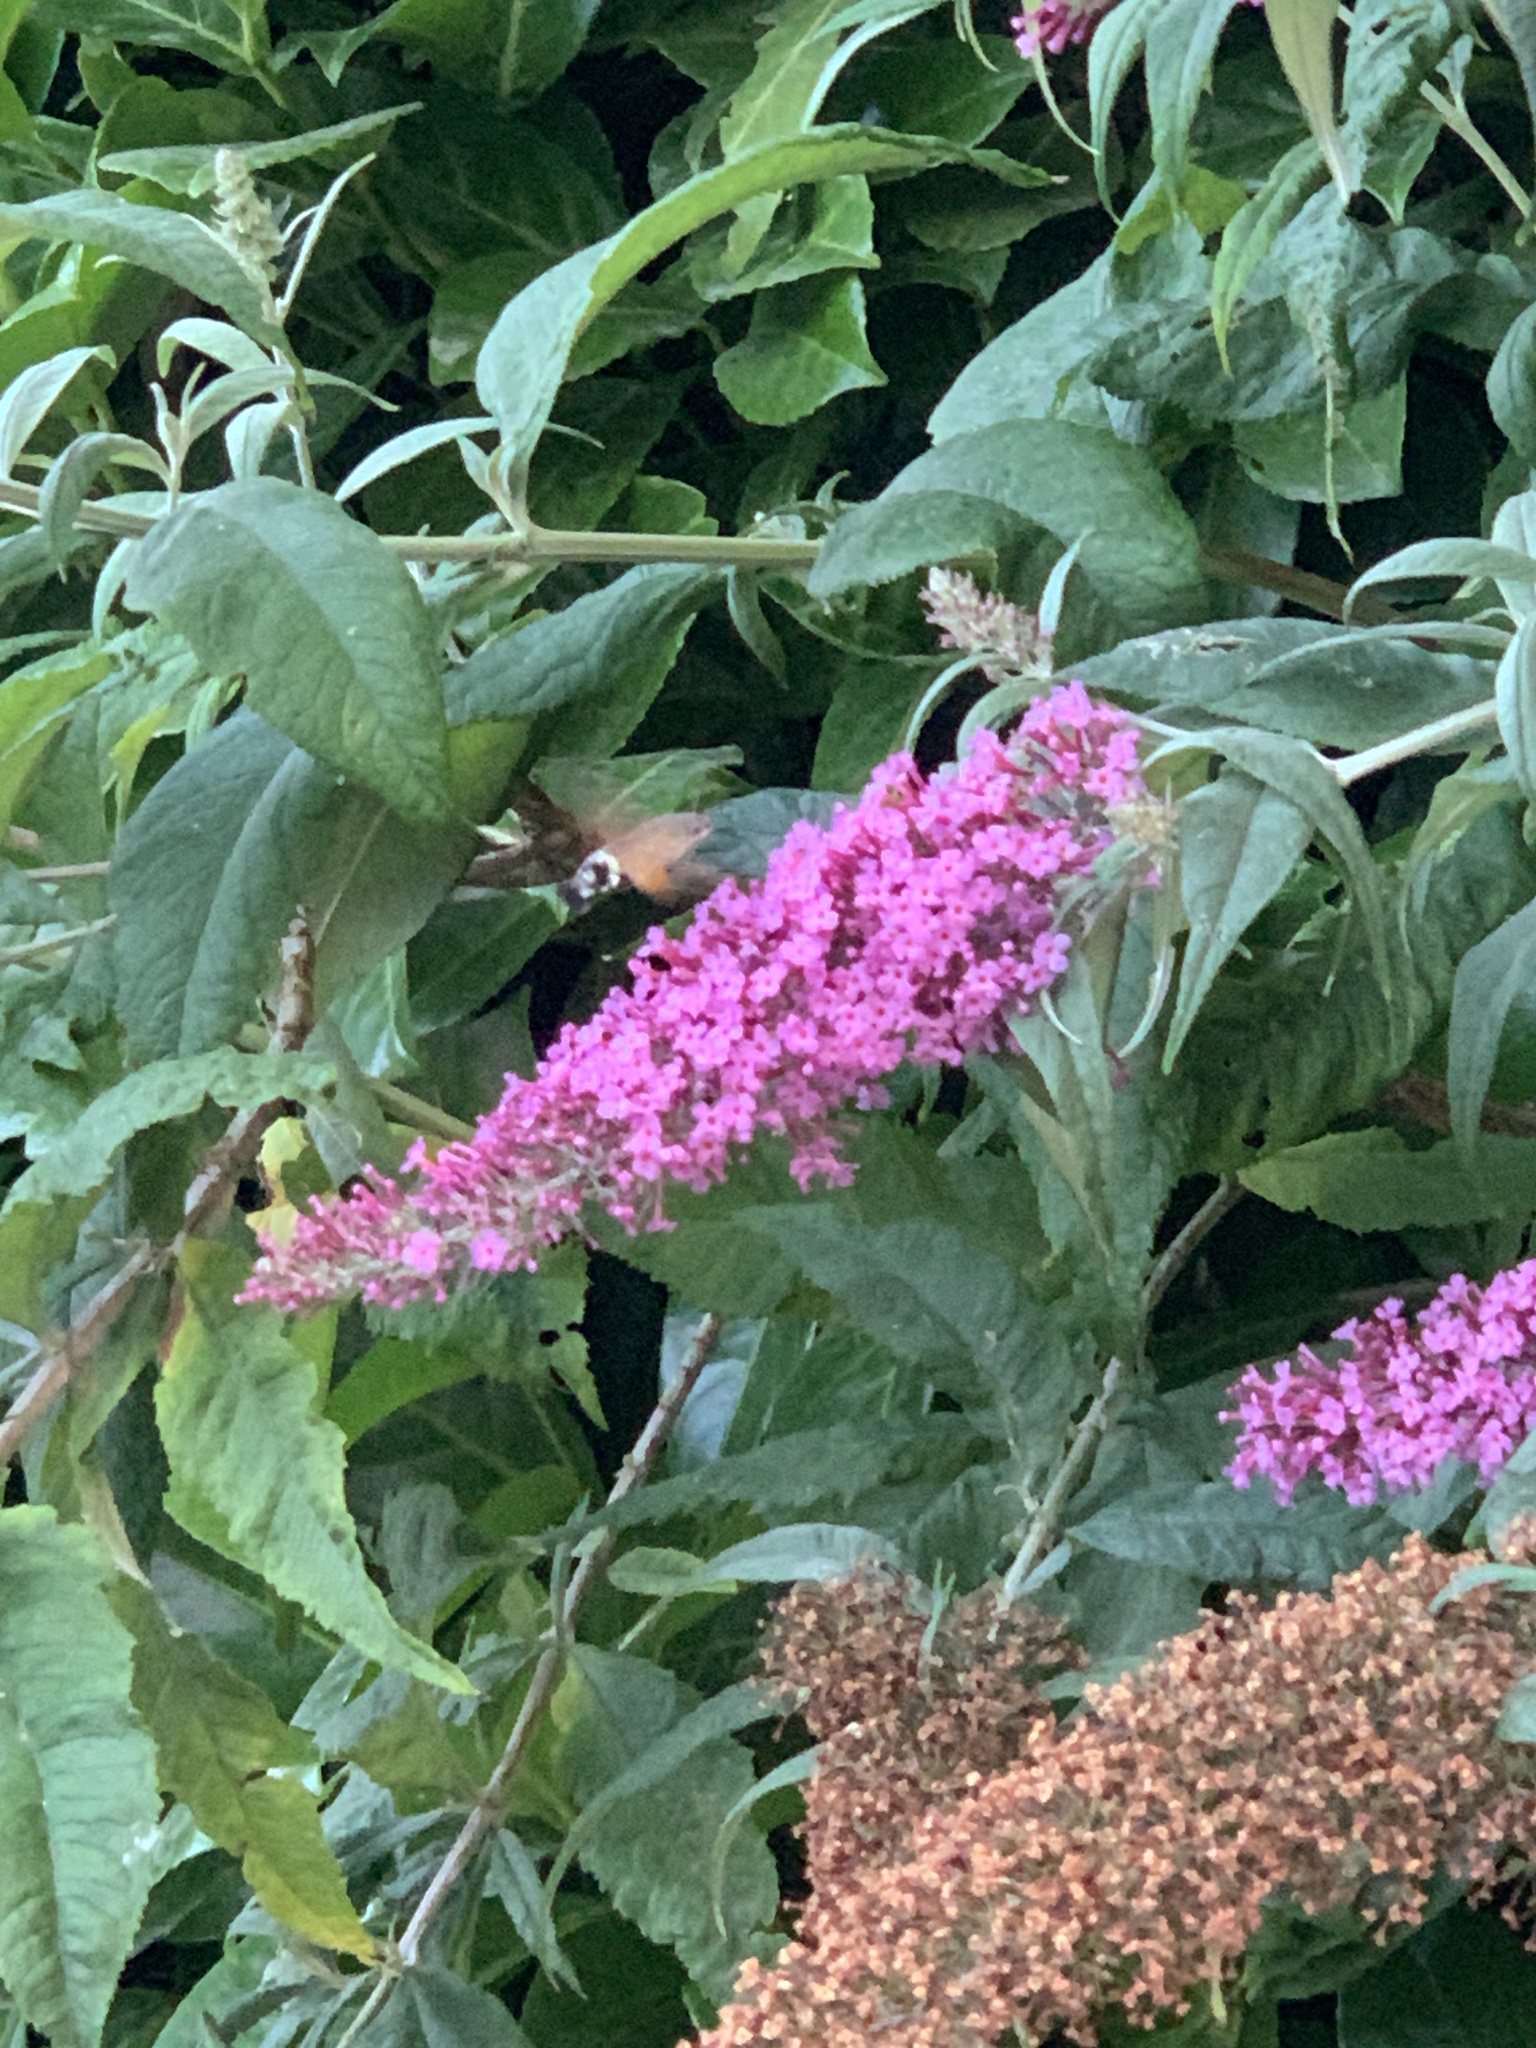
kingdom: Animalia
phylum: Arthropoda
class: Insecta
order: Lepidoptera
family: Sphingidae
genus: Macroglossum
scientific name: Macroglossum stellatarum
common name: Humming-bird hawk-moth
